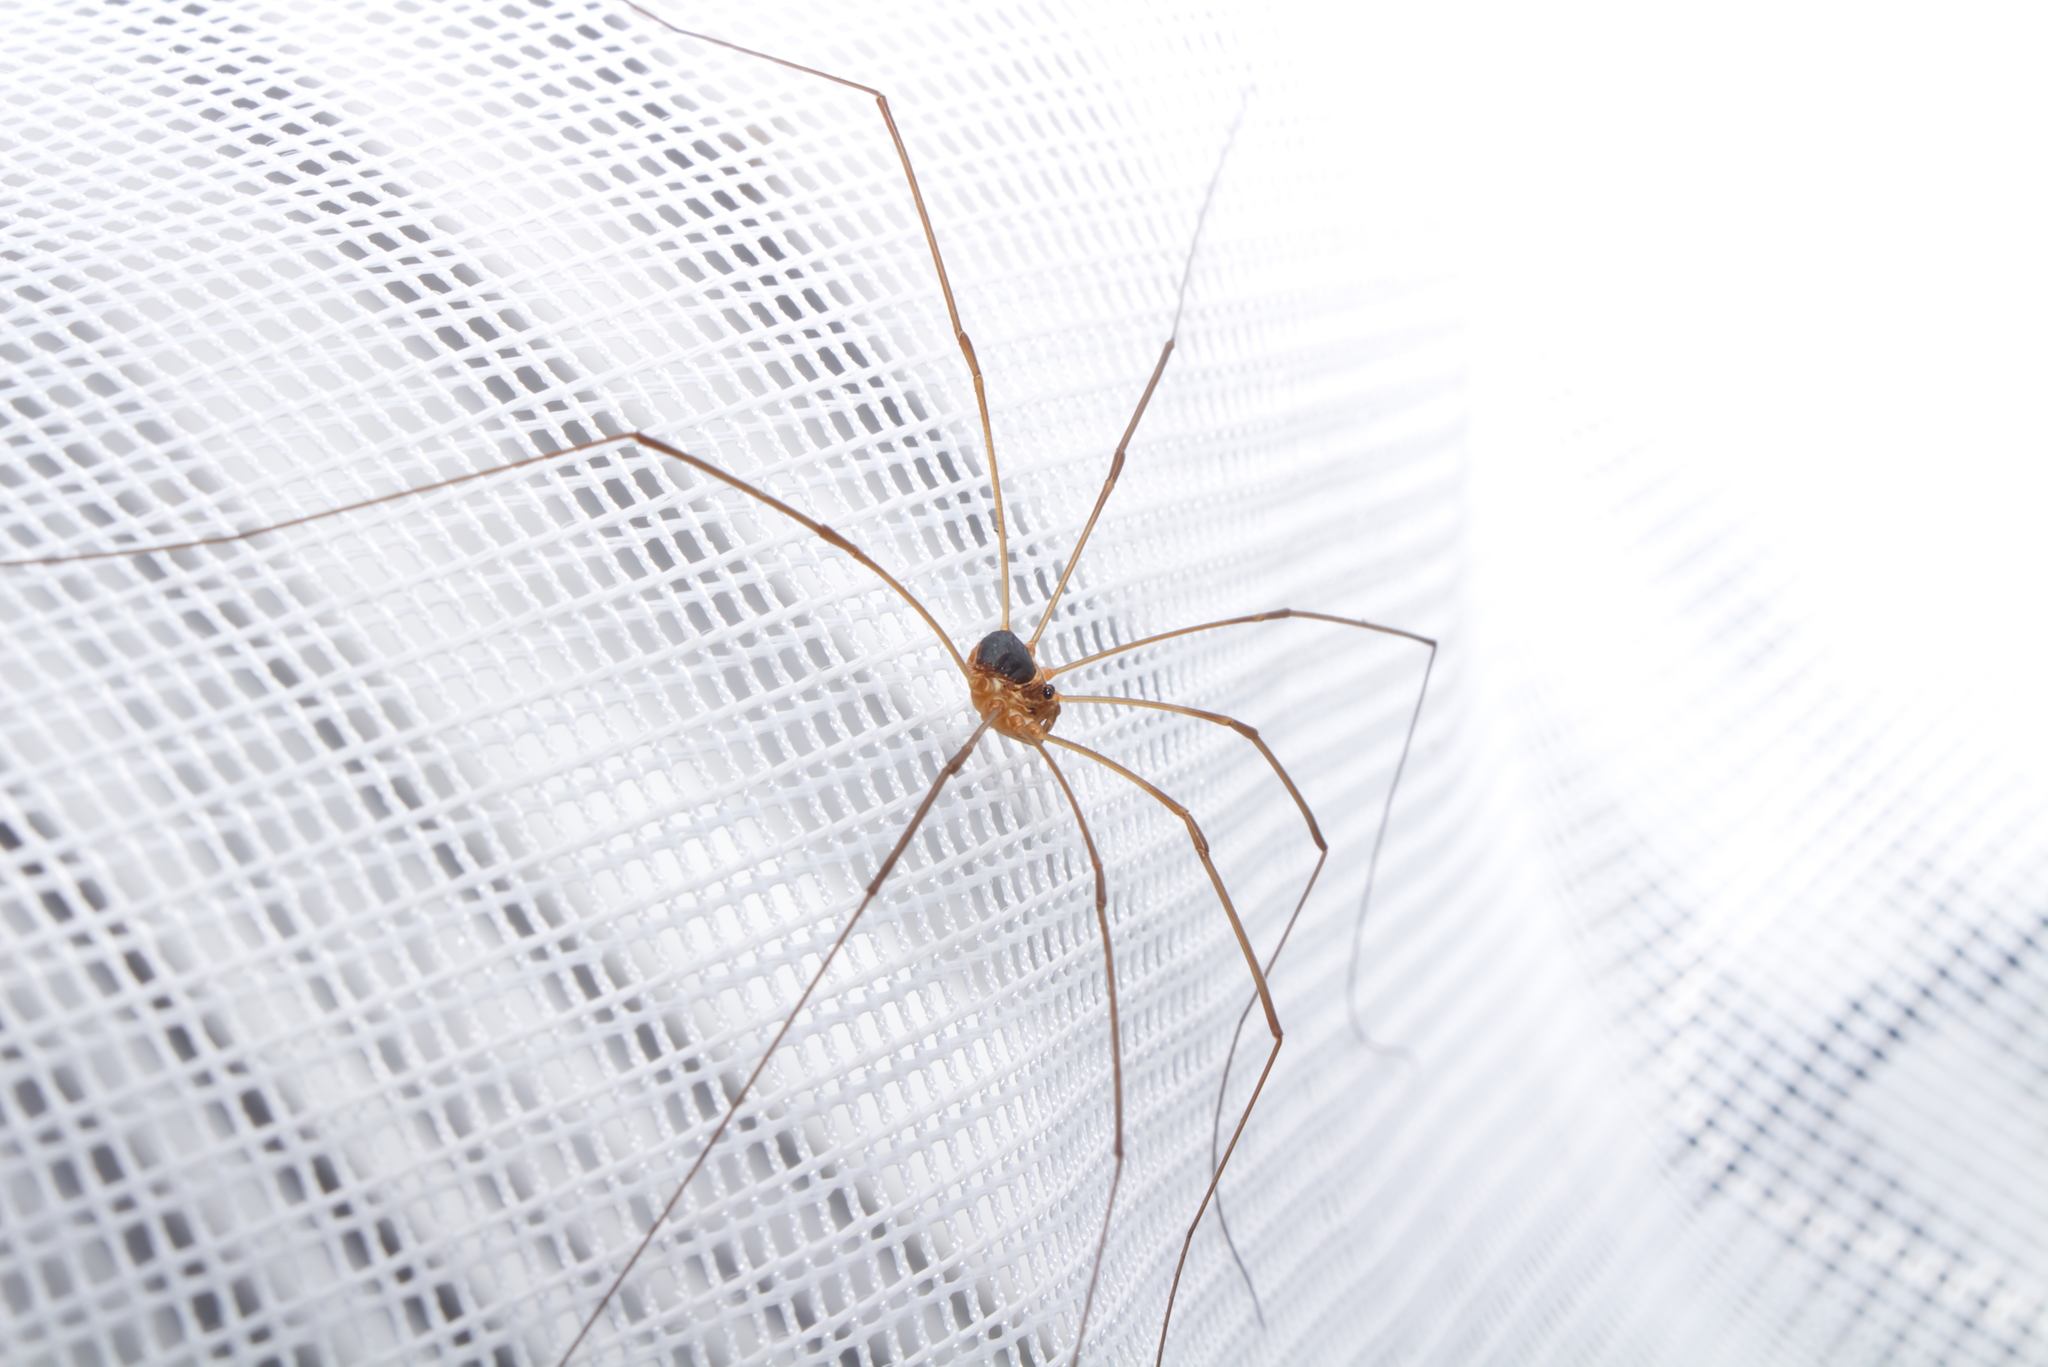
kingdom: Animalia
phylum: Arthropoda
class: Arachnida
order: Opiliones
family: Phalangiidae
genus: Amilenus
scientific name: Amilenus aurantiacus
